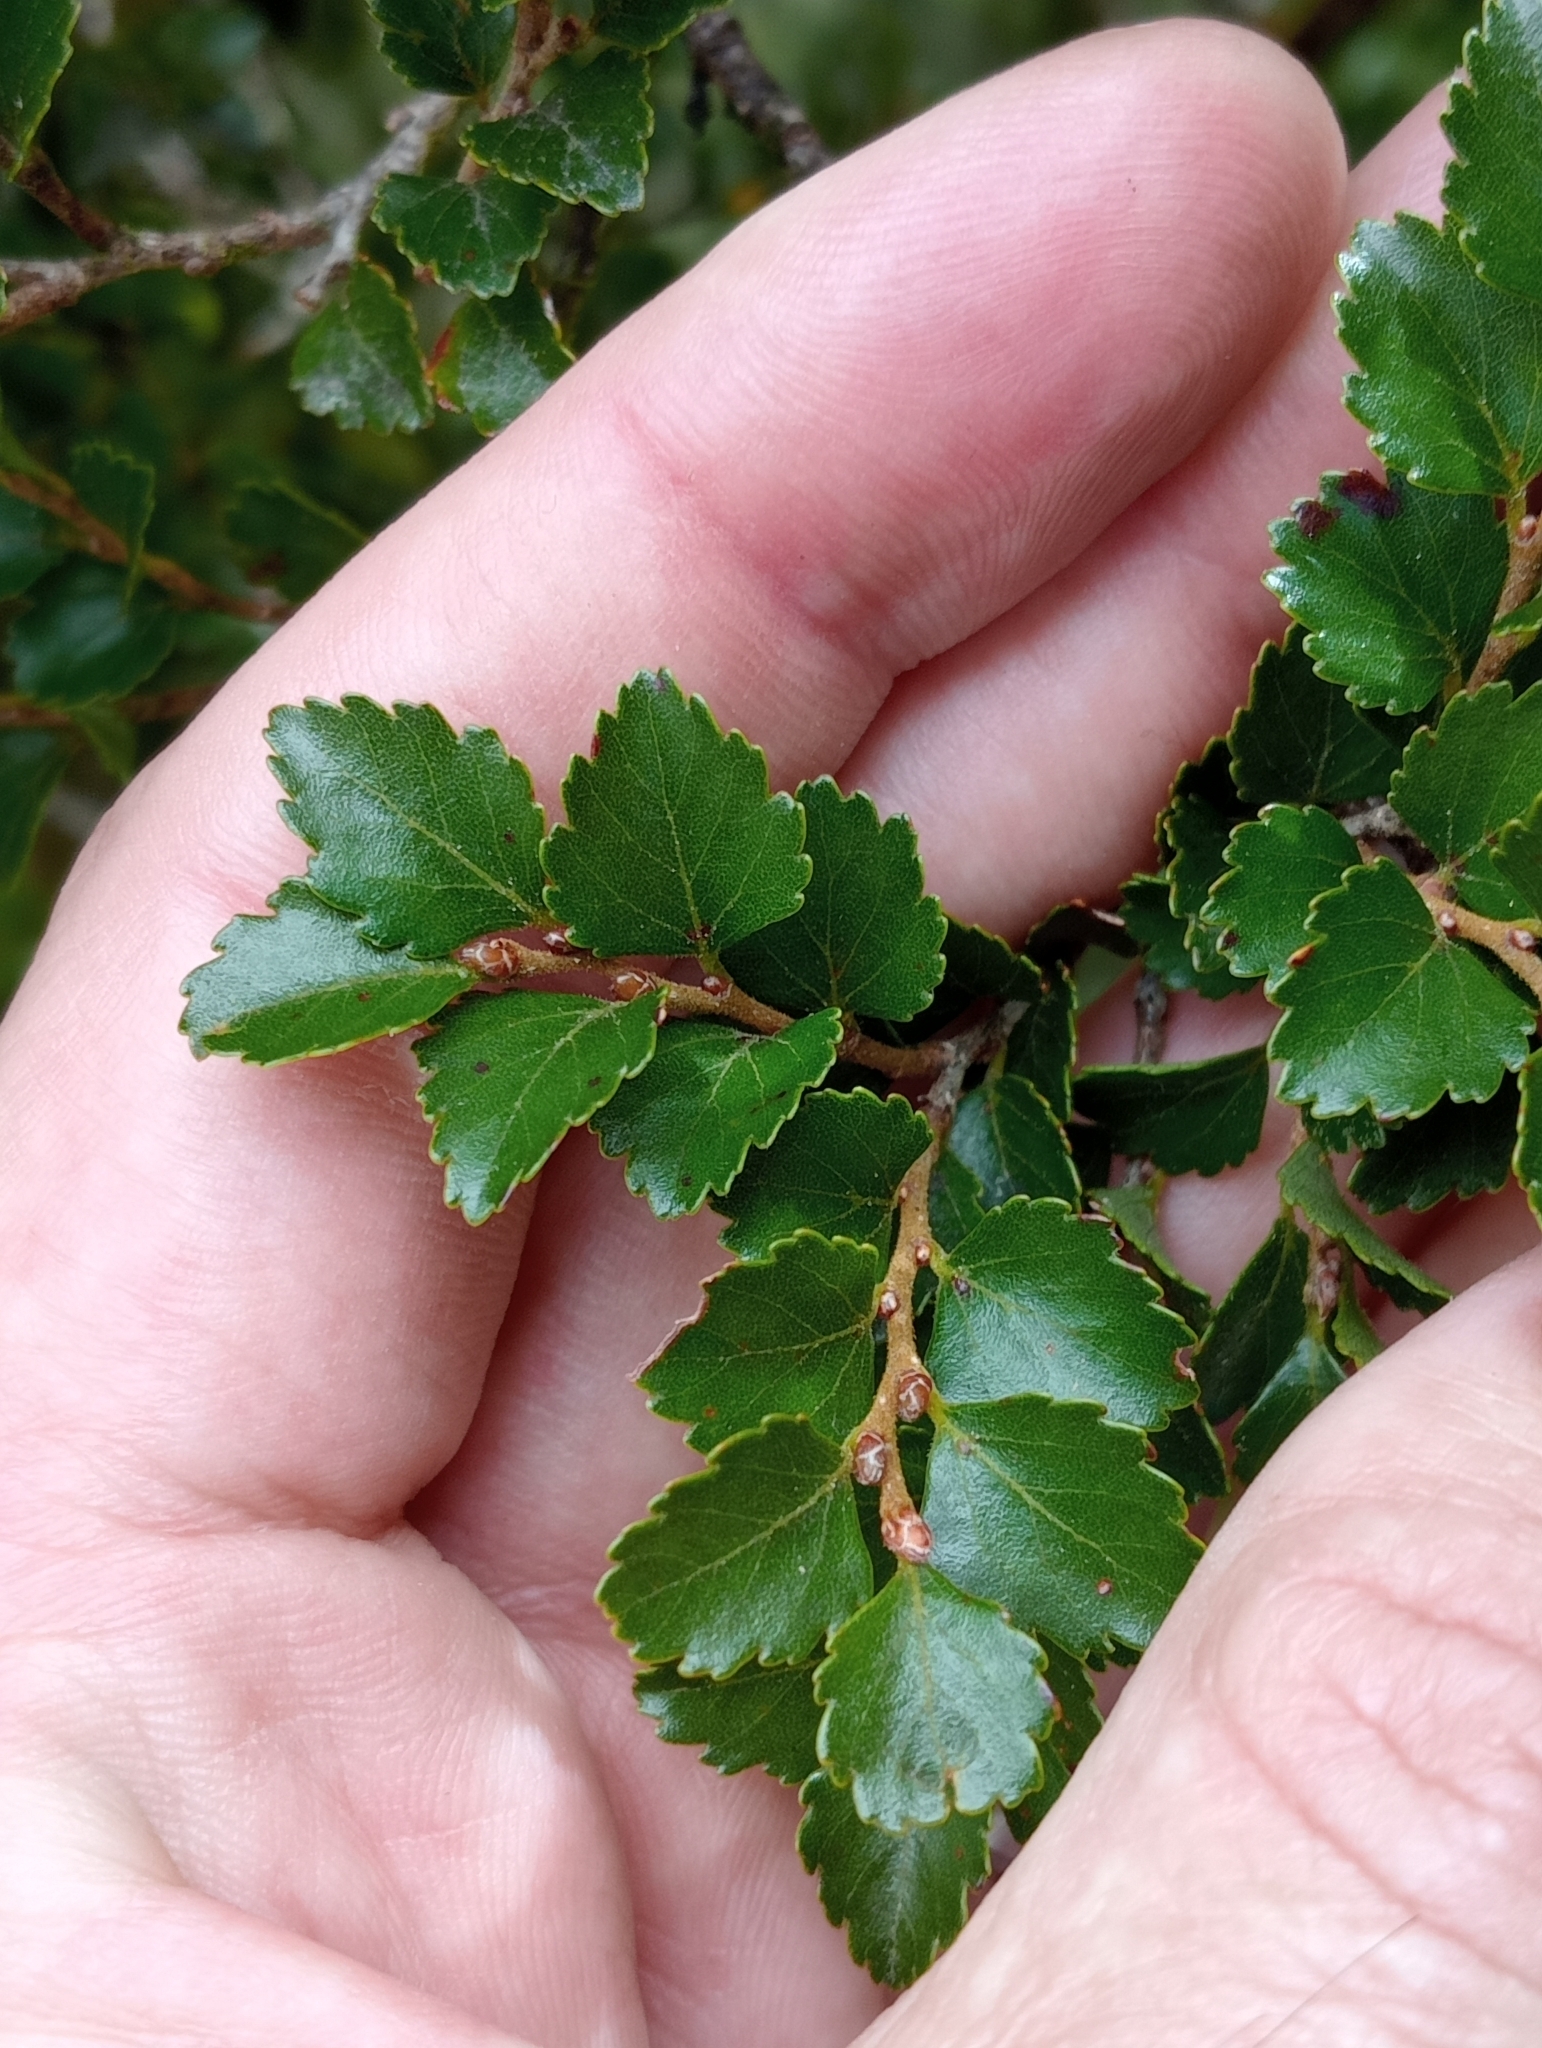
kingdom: Plantae
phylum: Tracheophyta
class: Magnoliopsida
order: Fagales
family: Nothofagaceae
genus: Nothofagus
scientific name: Nothofagus menziesii
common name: Silver beech
